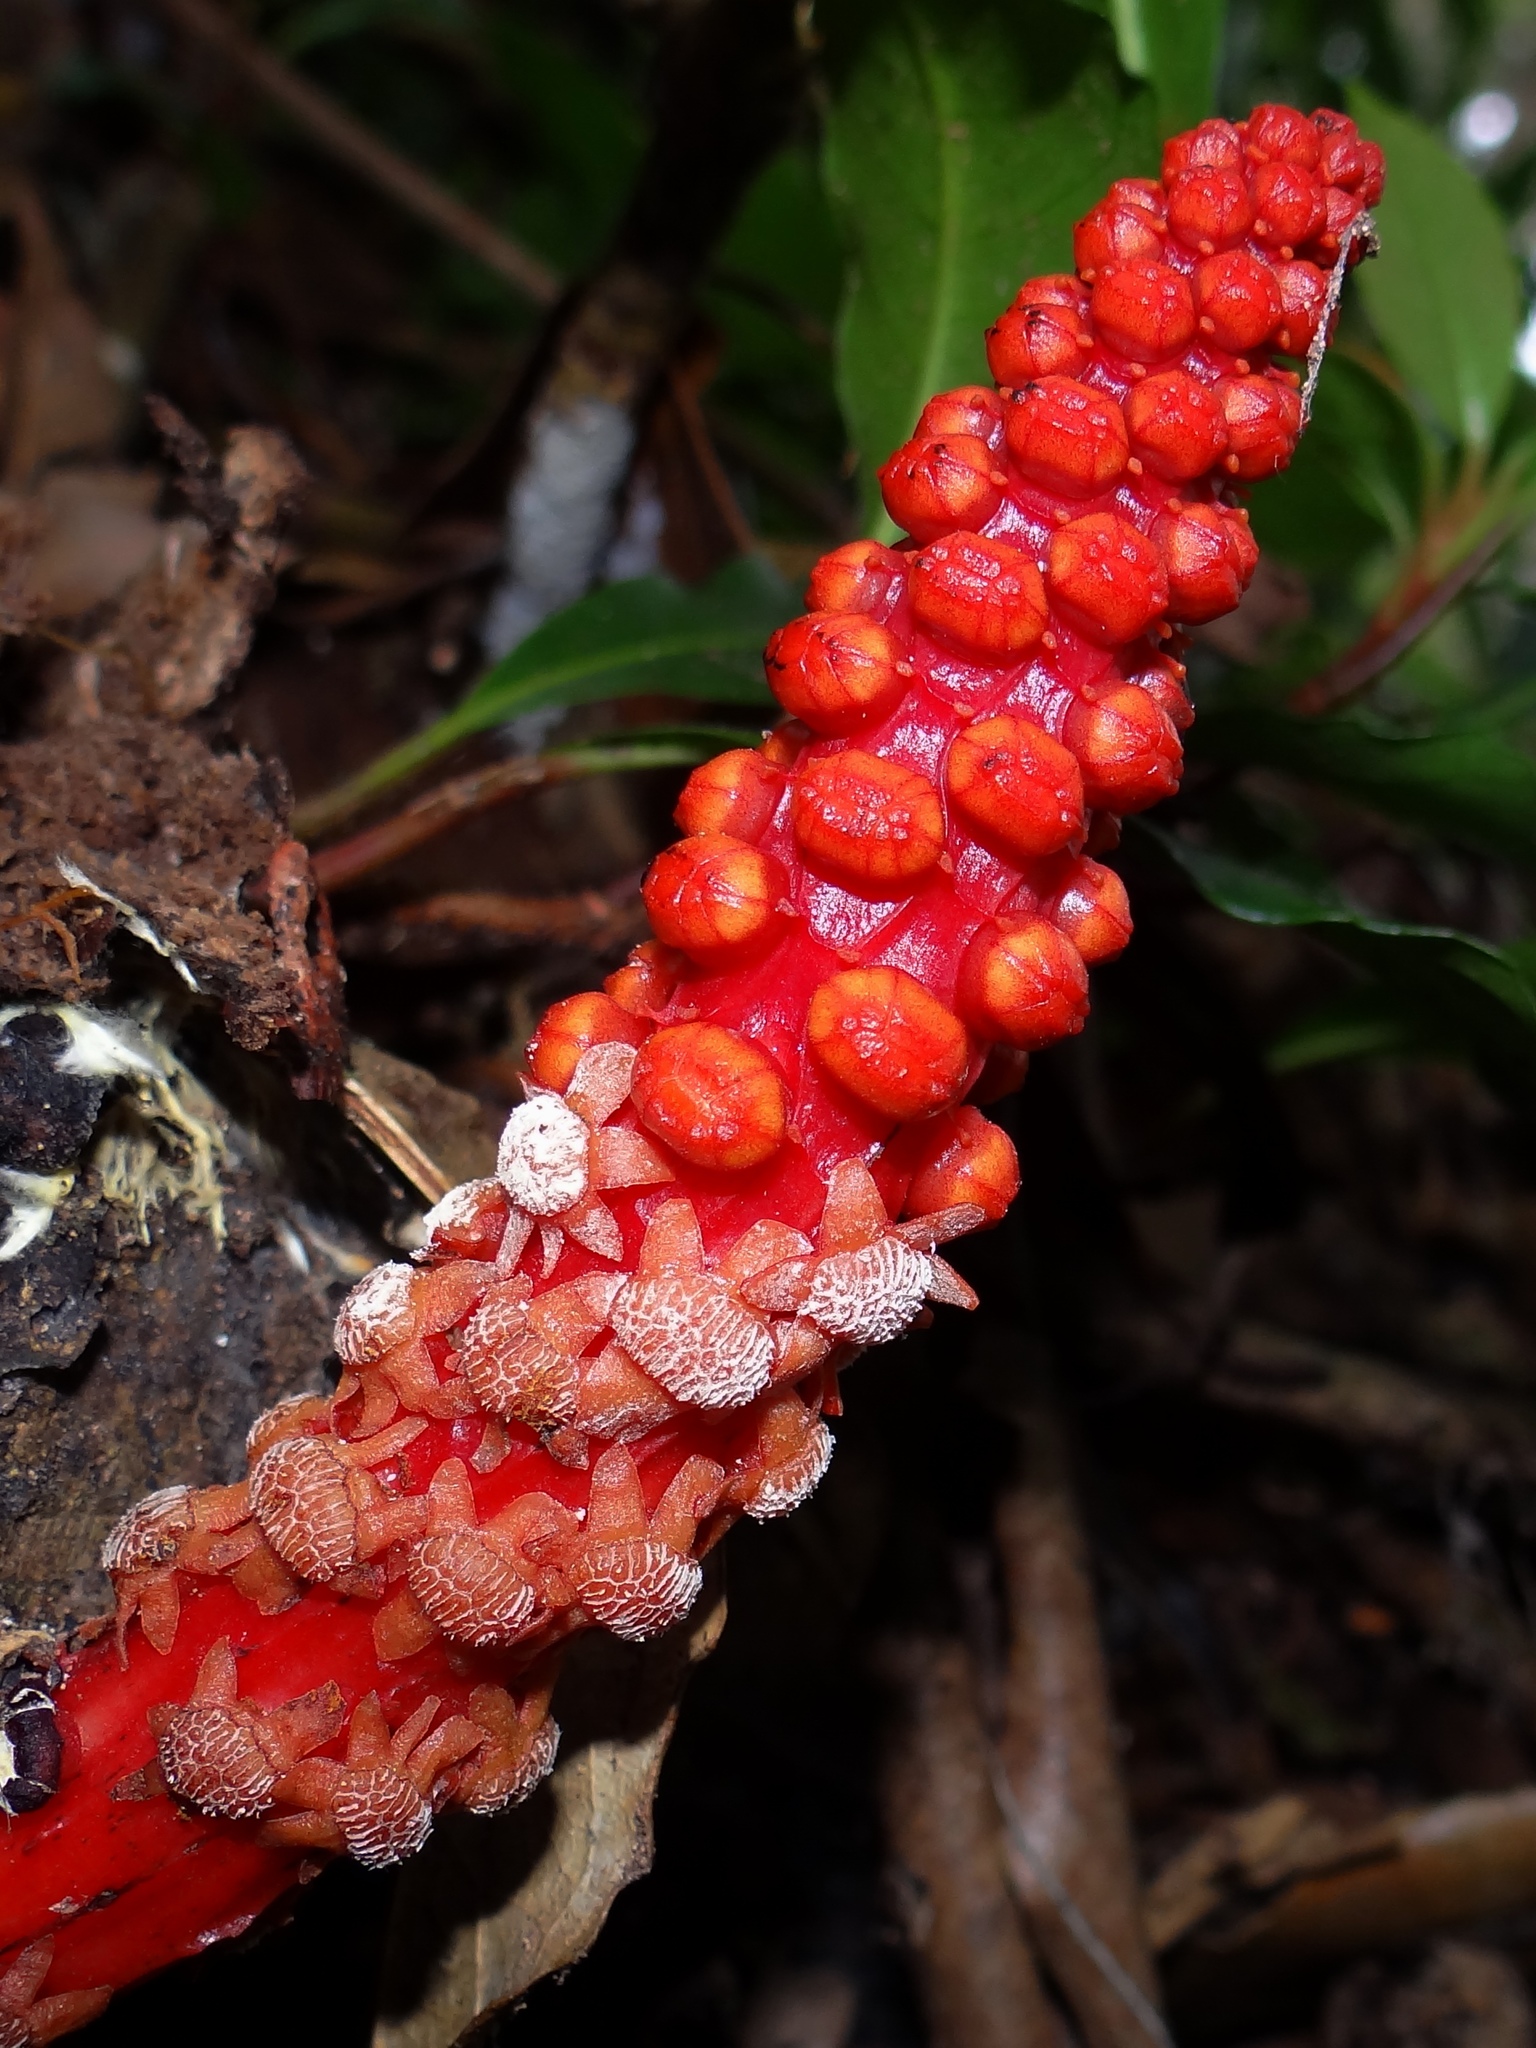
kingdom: Plantae
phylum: Tracheophyta
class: Magnoliopsida
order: Santalales
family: Balanophoraceae
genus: Balanophora
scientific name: Balanophora laxiflora
